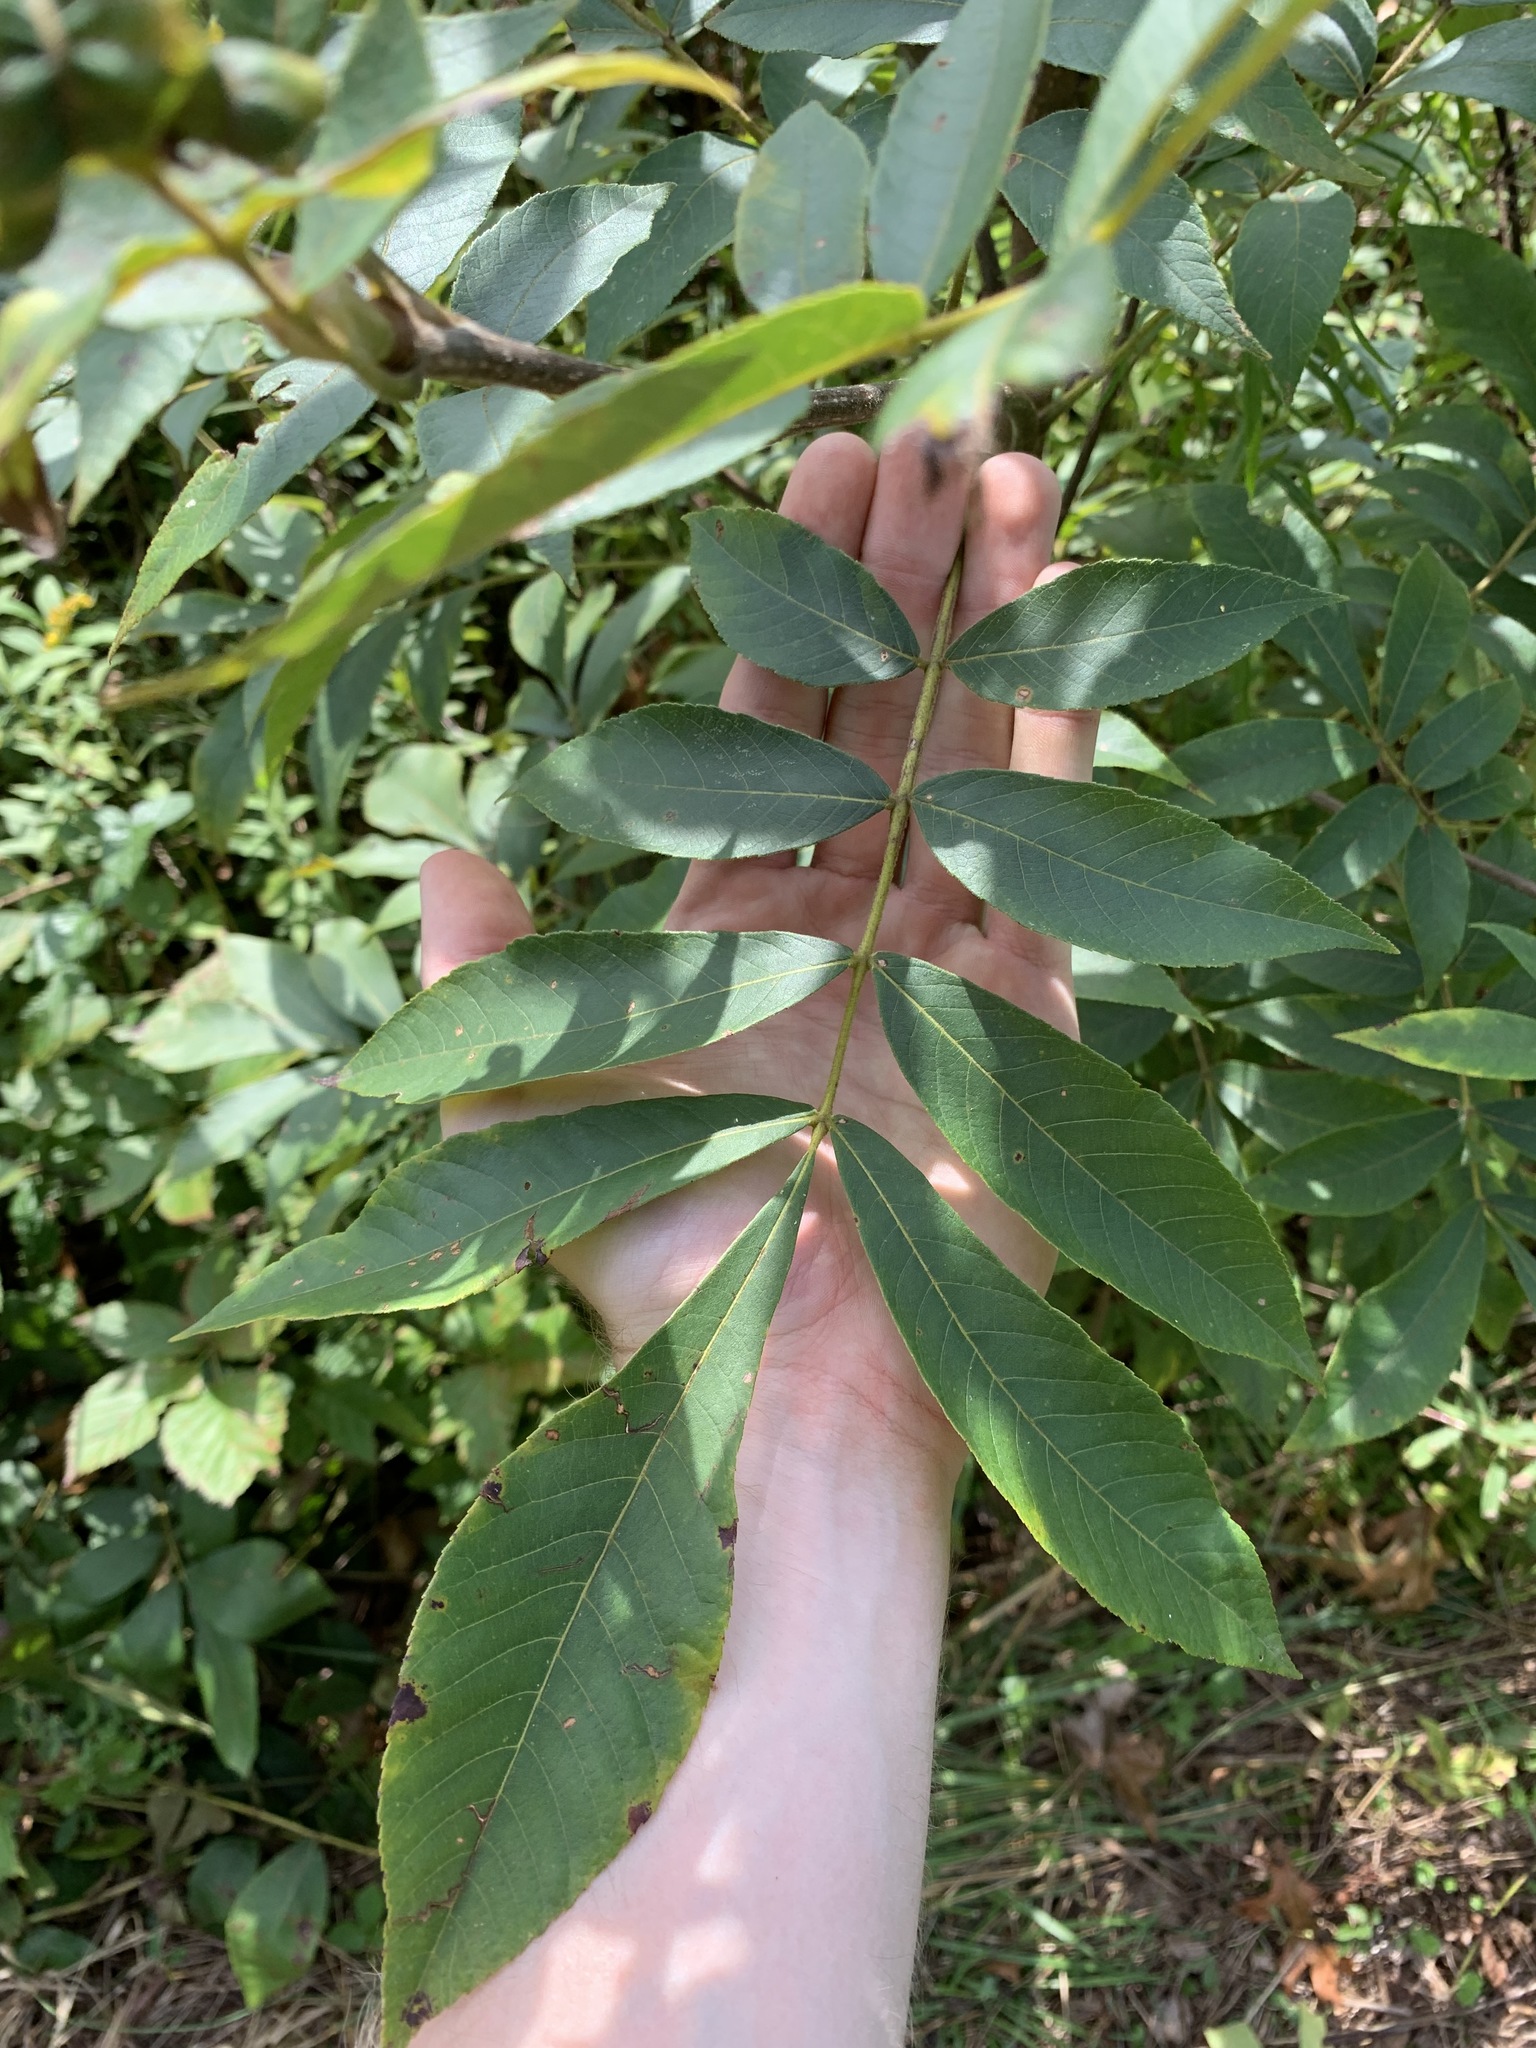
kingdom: Plantae
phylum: Tracheophyta
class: Magnoliopsida
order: Fagales
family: Juglandaceae
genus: Carya
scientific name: Carya alba
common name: Mockernut hickory
